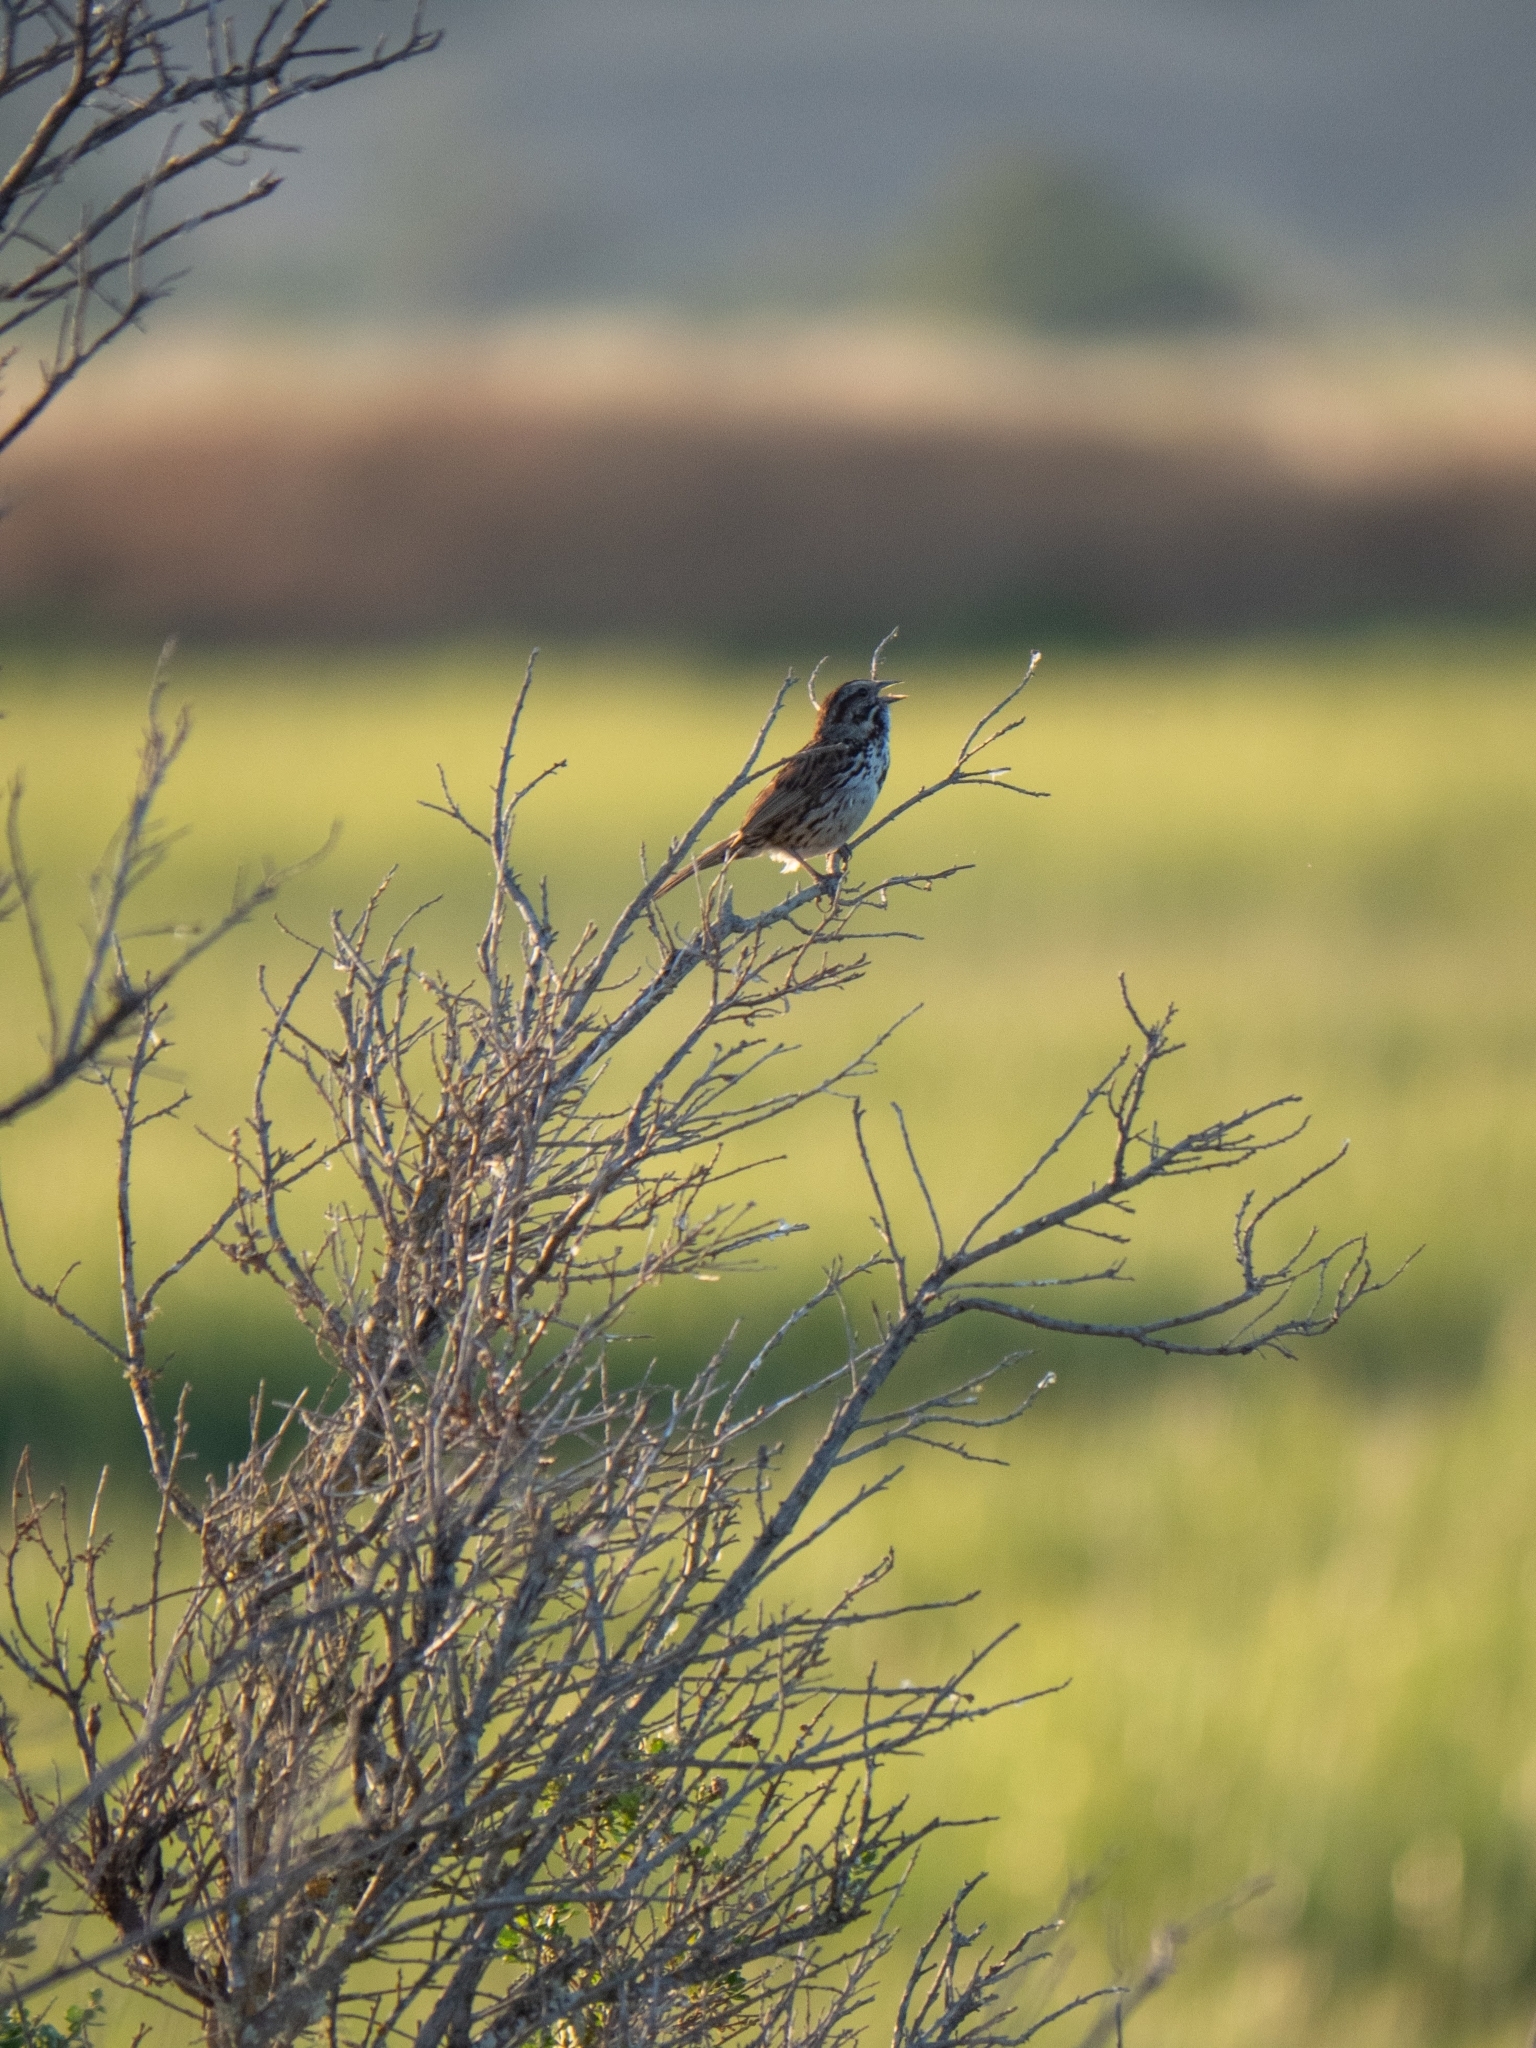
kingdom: Animalia
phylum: Chordata
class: Aves
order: Passeriformes
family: Passerellidae
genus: Melospiza
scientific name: Melospiza melodia
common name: Song sparrow
